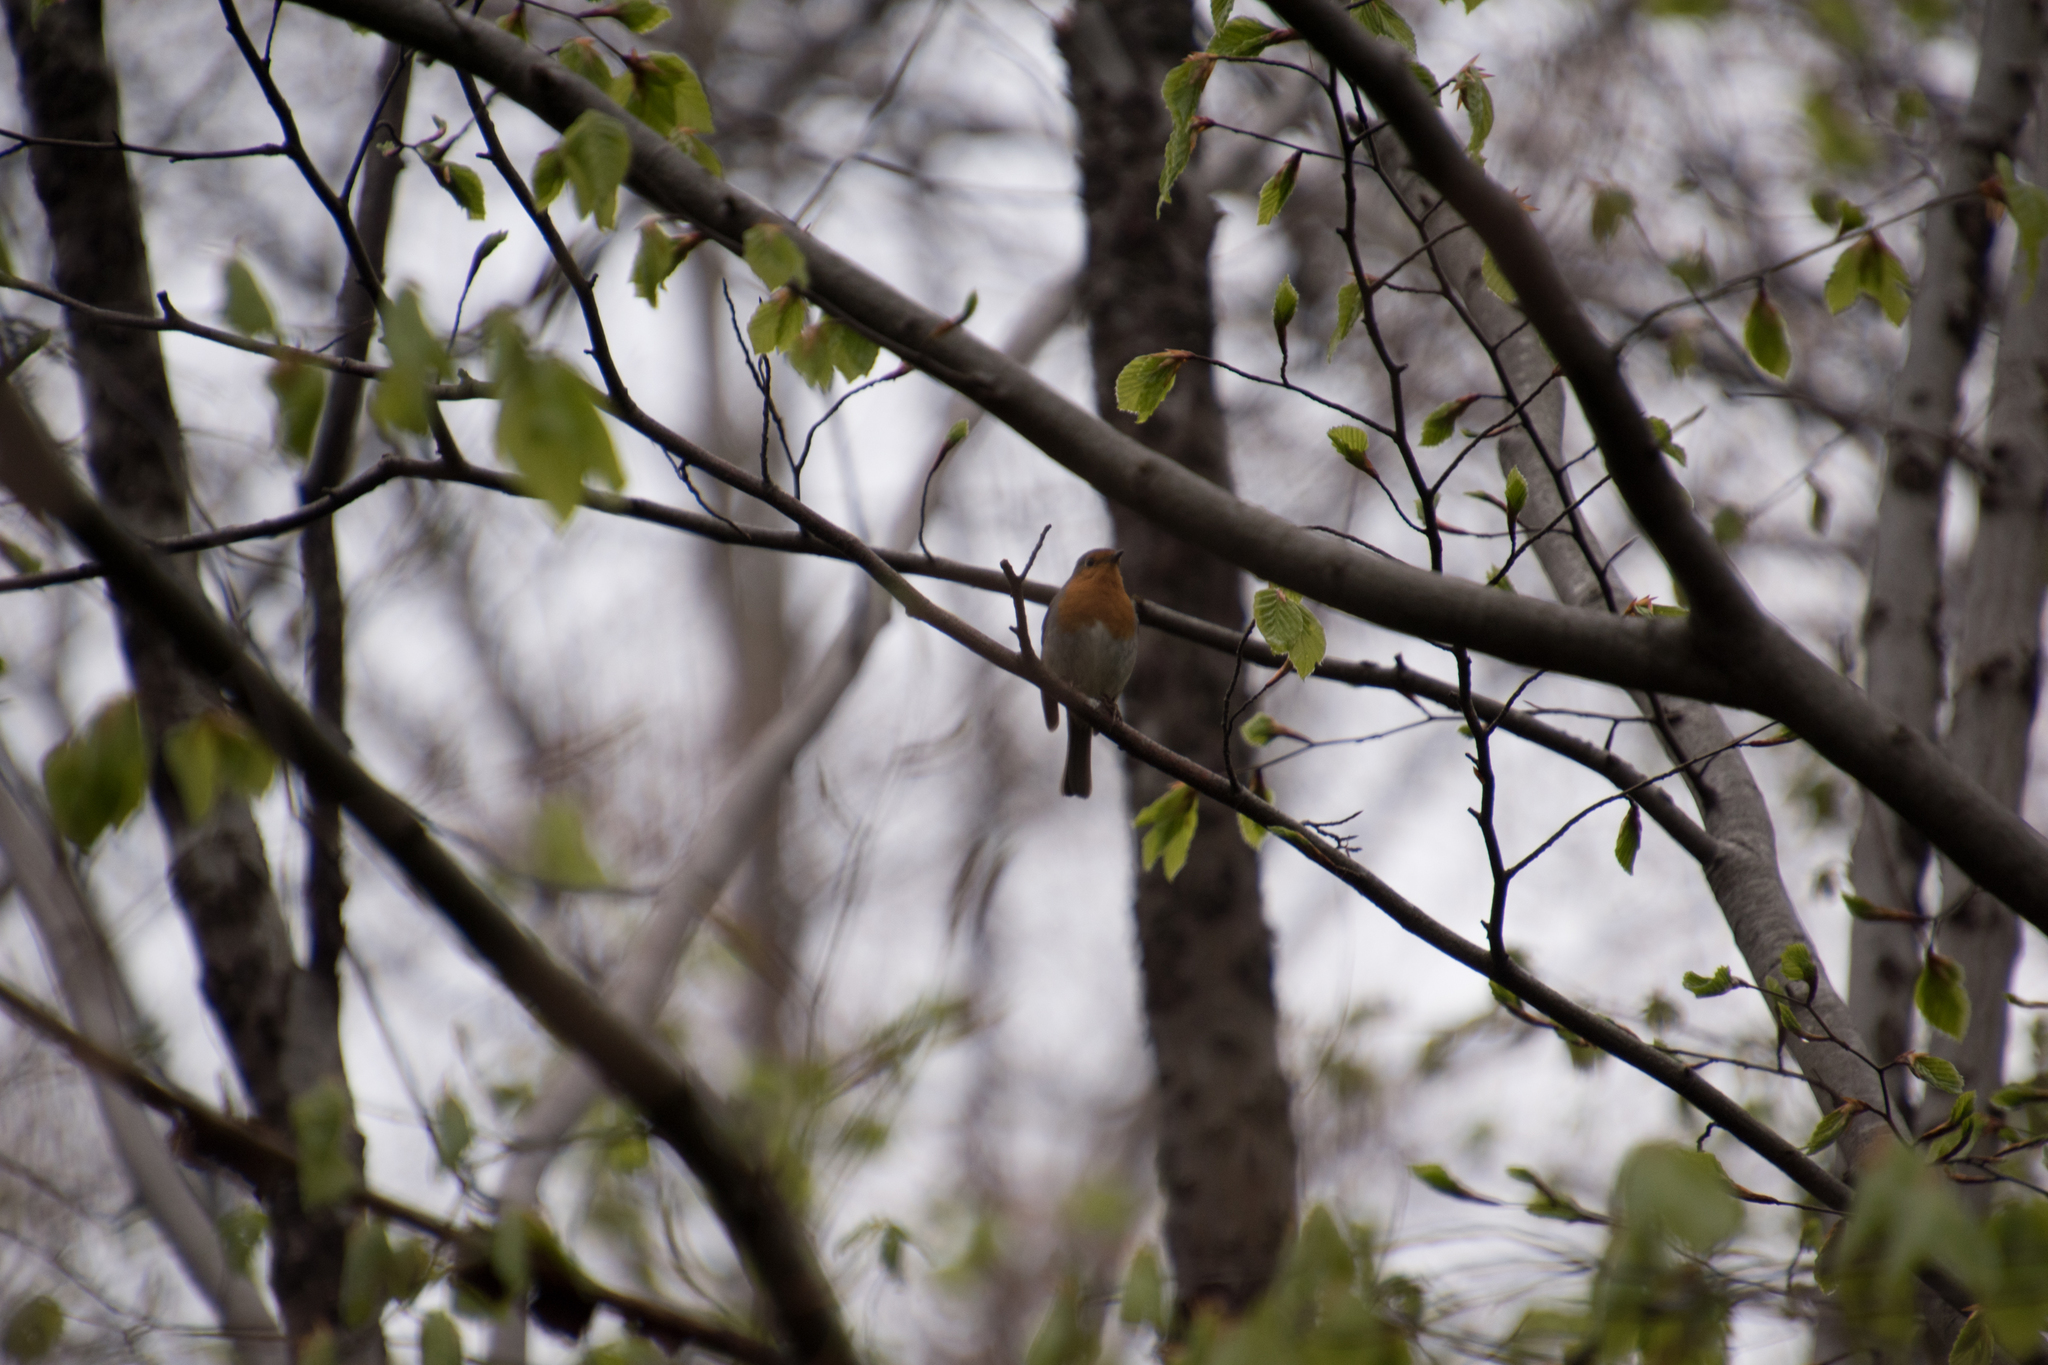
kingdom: Animalia
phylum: Chordata
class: Aves
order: Passeriformes
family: Muscicapidae
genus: Erithacus
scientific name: Erithacus rubecula
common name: European robin
